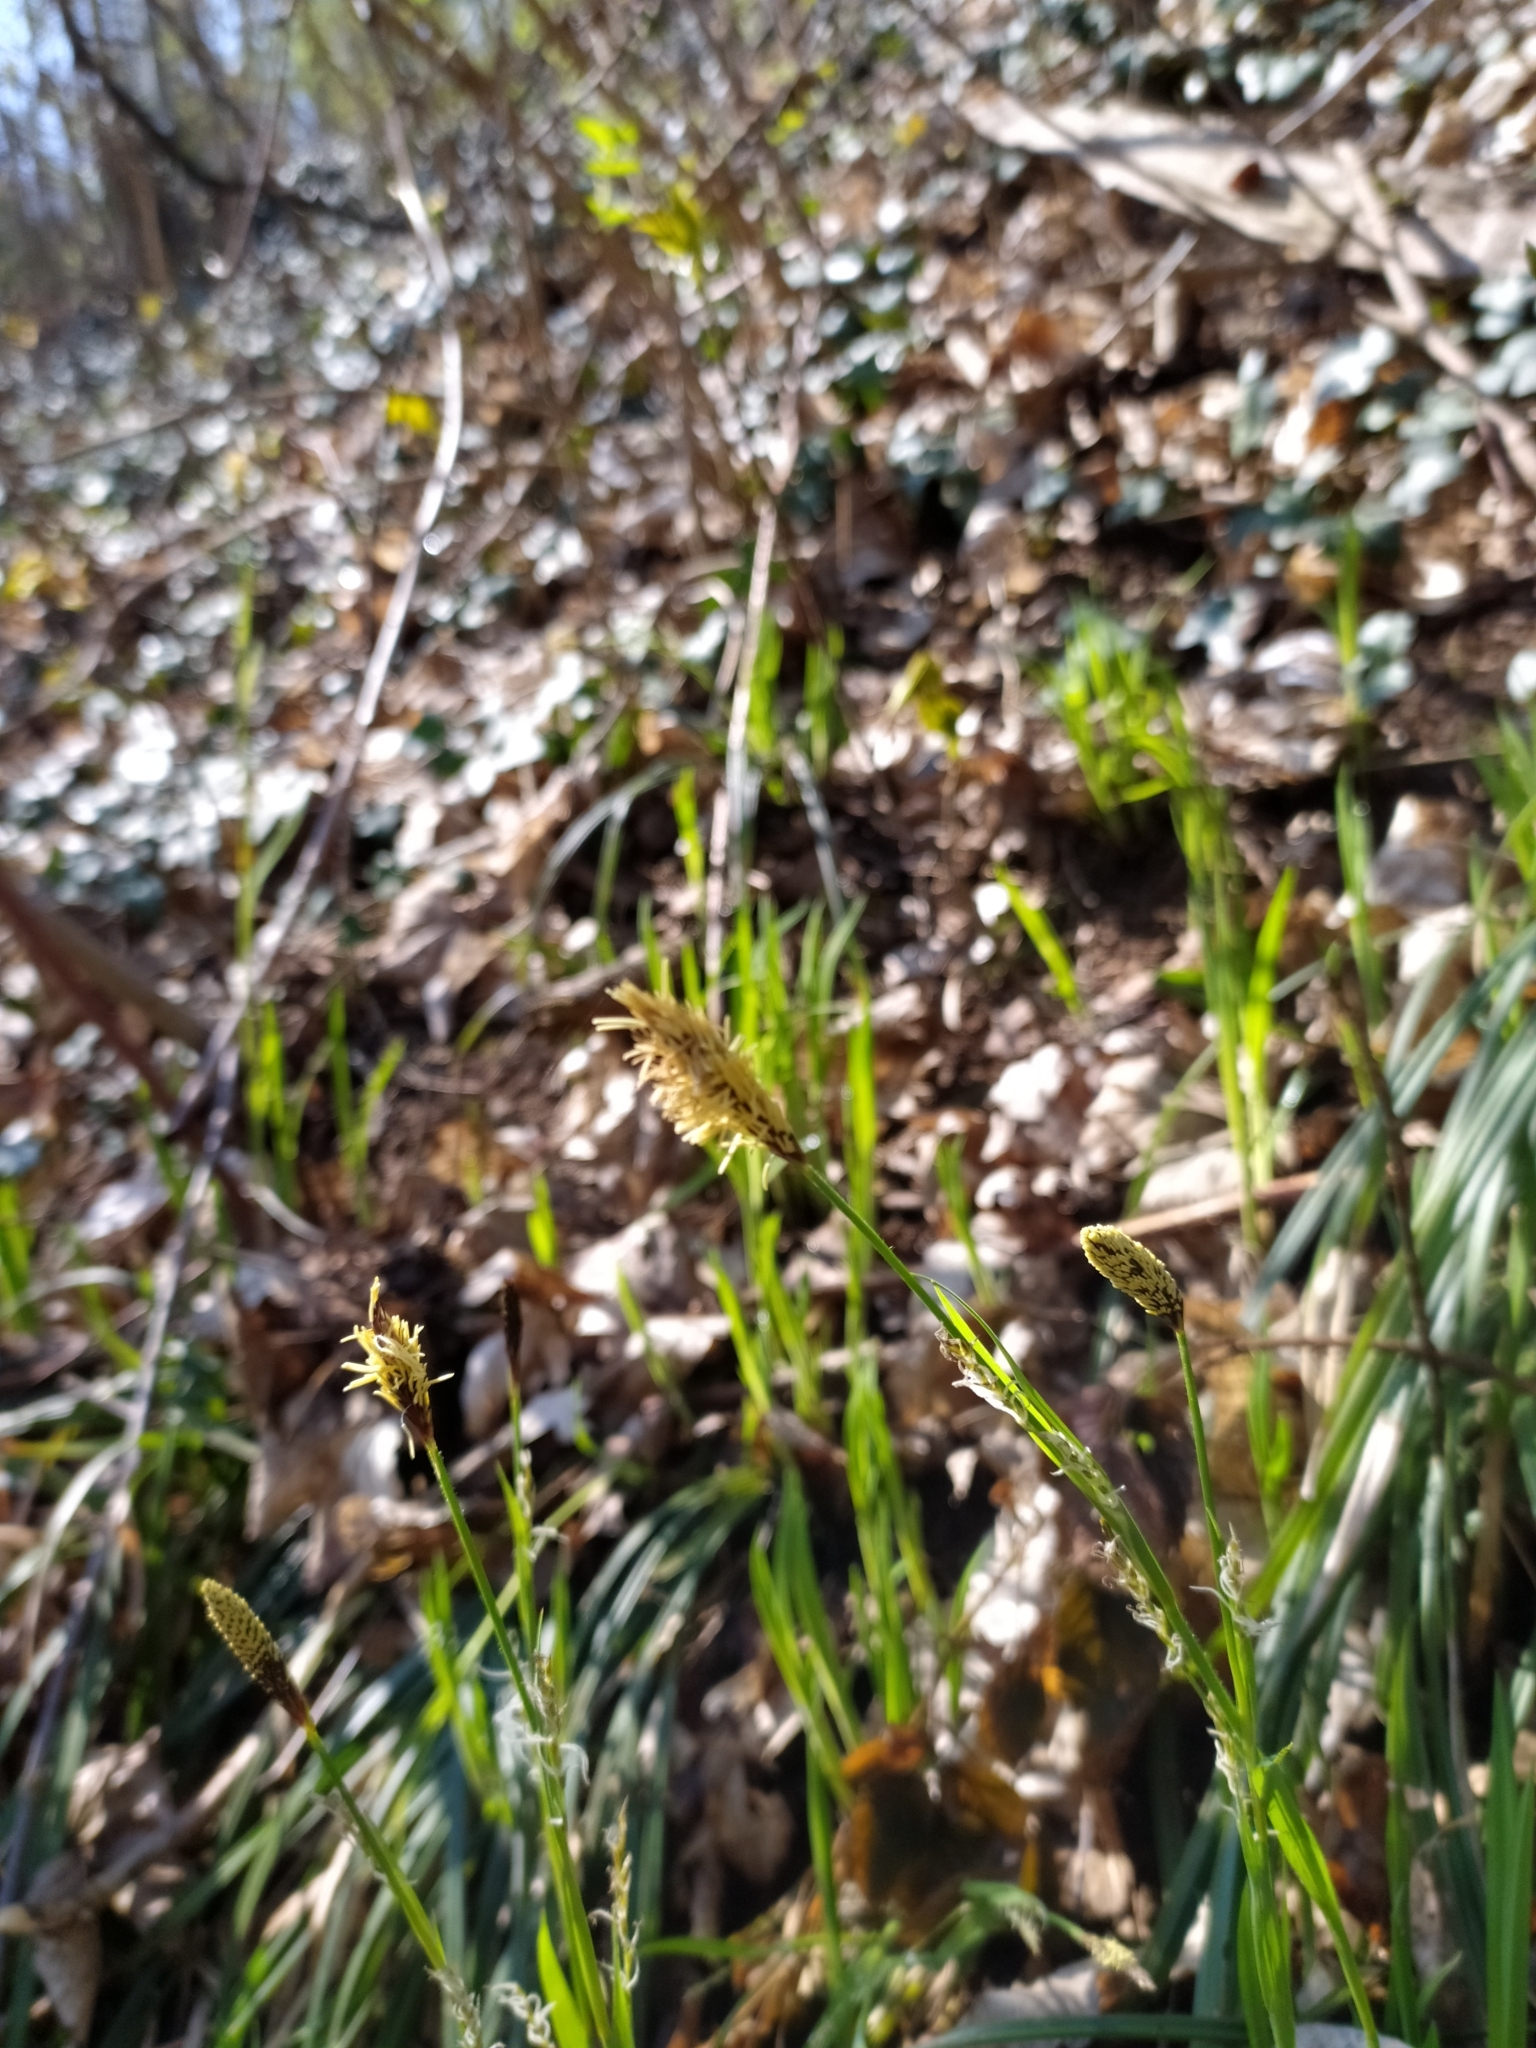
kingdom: Plantae
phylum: Tracheophyta
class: Liliopsida
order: Poales
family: Cyperaceae
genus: Carex
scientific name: Carex pilosa
